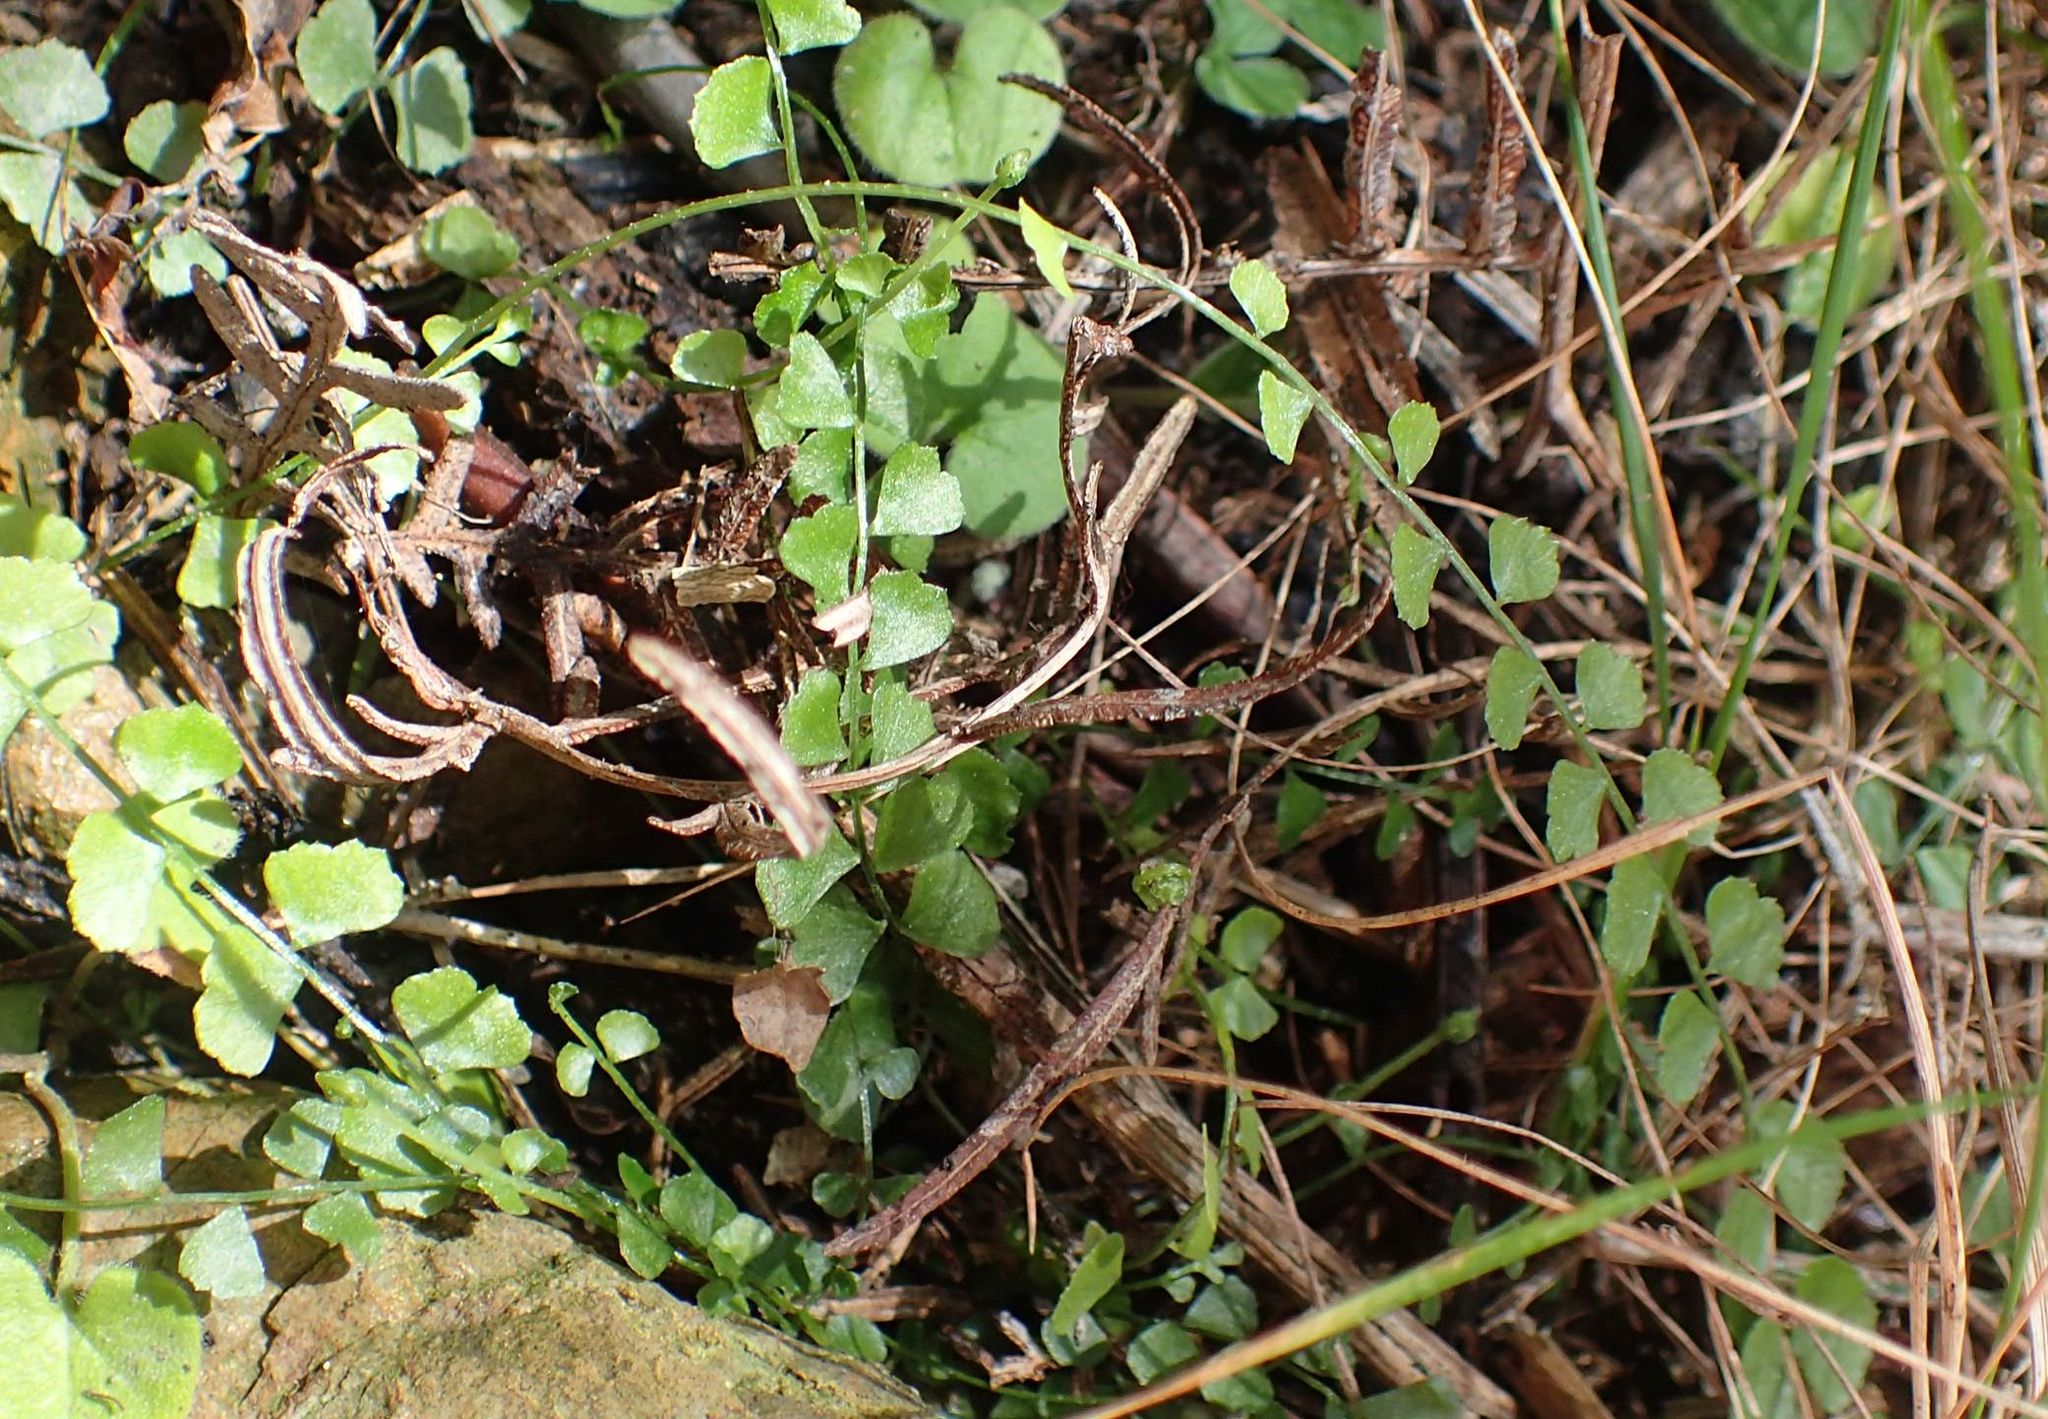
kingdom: Plantae
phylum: Tracheophyta
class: Polypodiopsida
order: Polypodiales
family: Aspleniaceae
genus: Asplenium
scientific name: Asplenium flabellifolium
